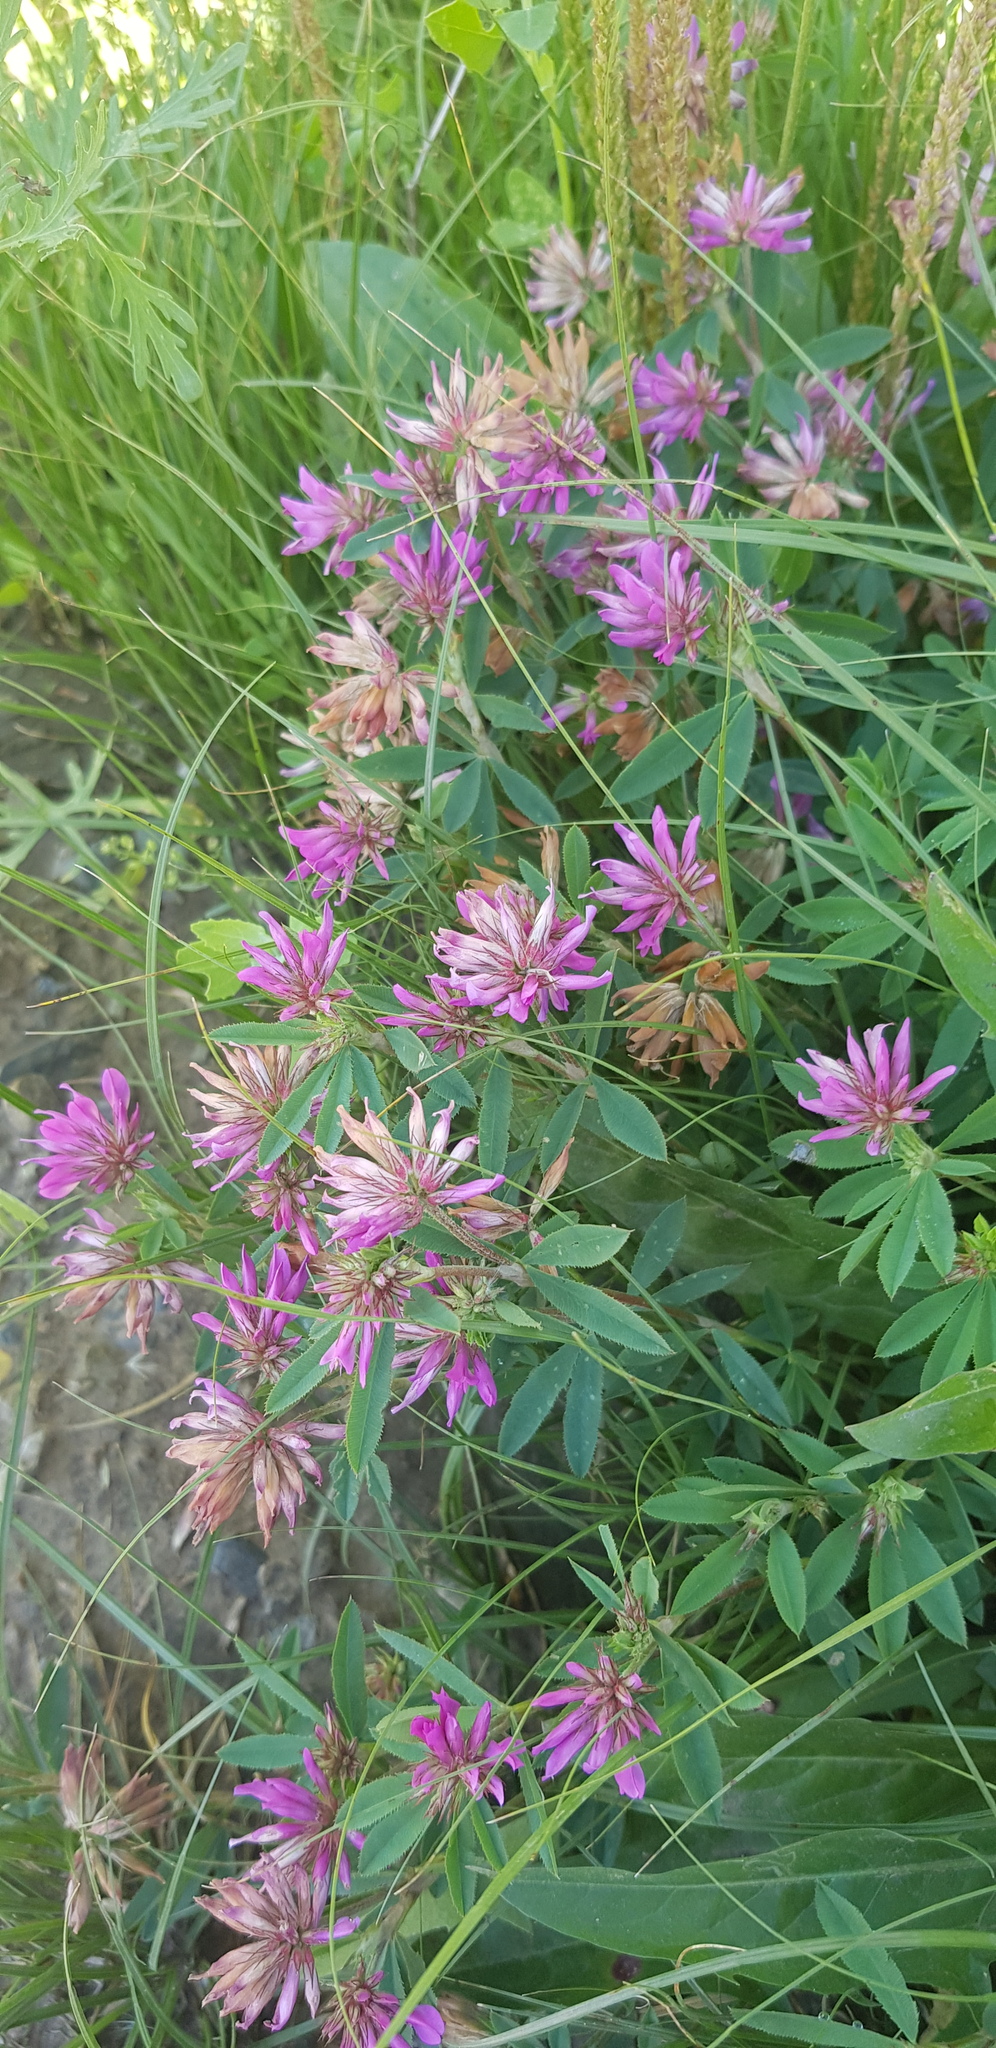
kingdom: Plantae
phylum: Tracheophyta
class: Magnoliopsida
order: Fabales
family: Fabaceae
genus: Trifolium
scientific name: Trifolium lupinaster
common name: Lupine clover
